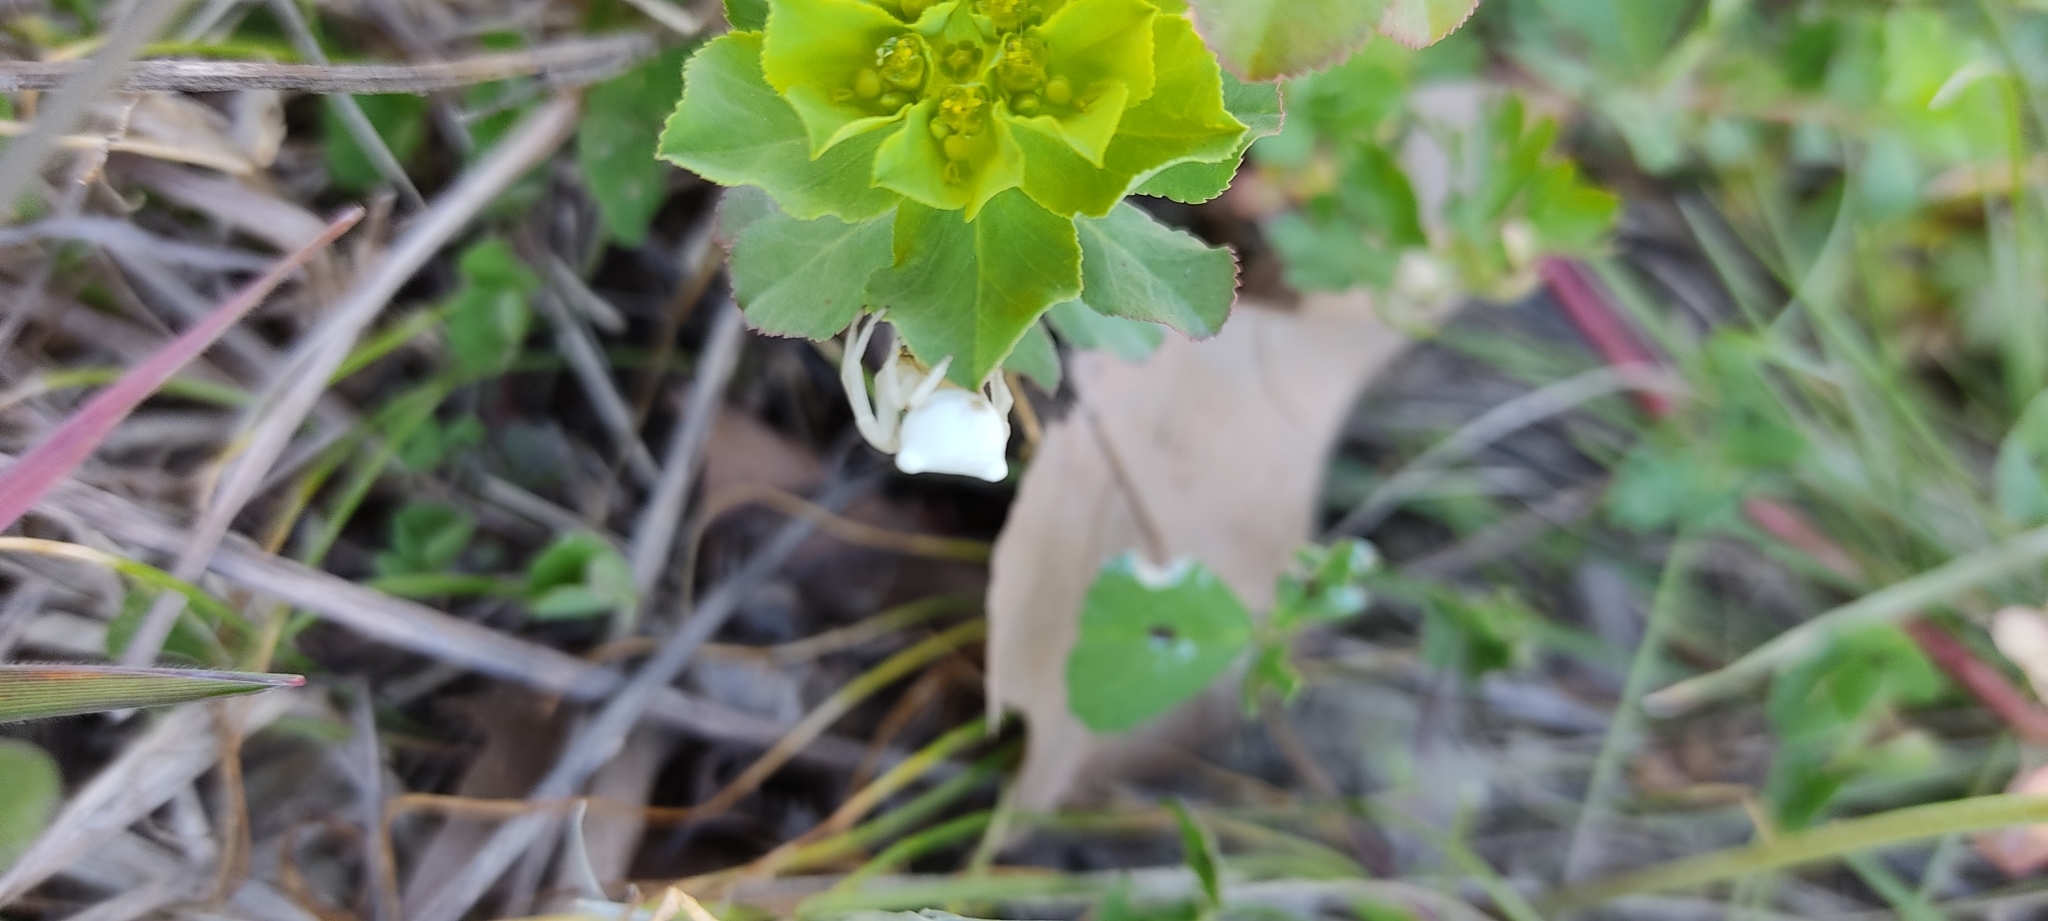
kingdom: Animalia
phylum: Arthropoda
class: Arachnida
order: Araneae
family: Thomisidae
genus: Thomisus
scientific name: Thomisus onustus
